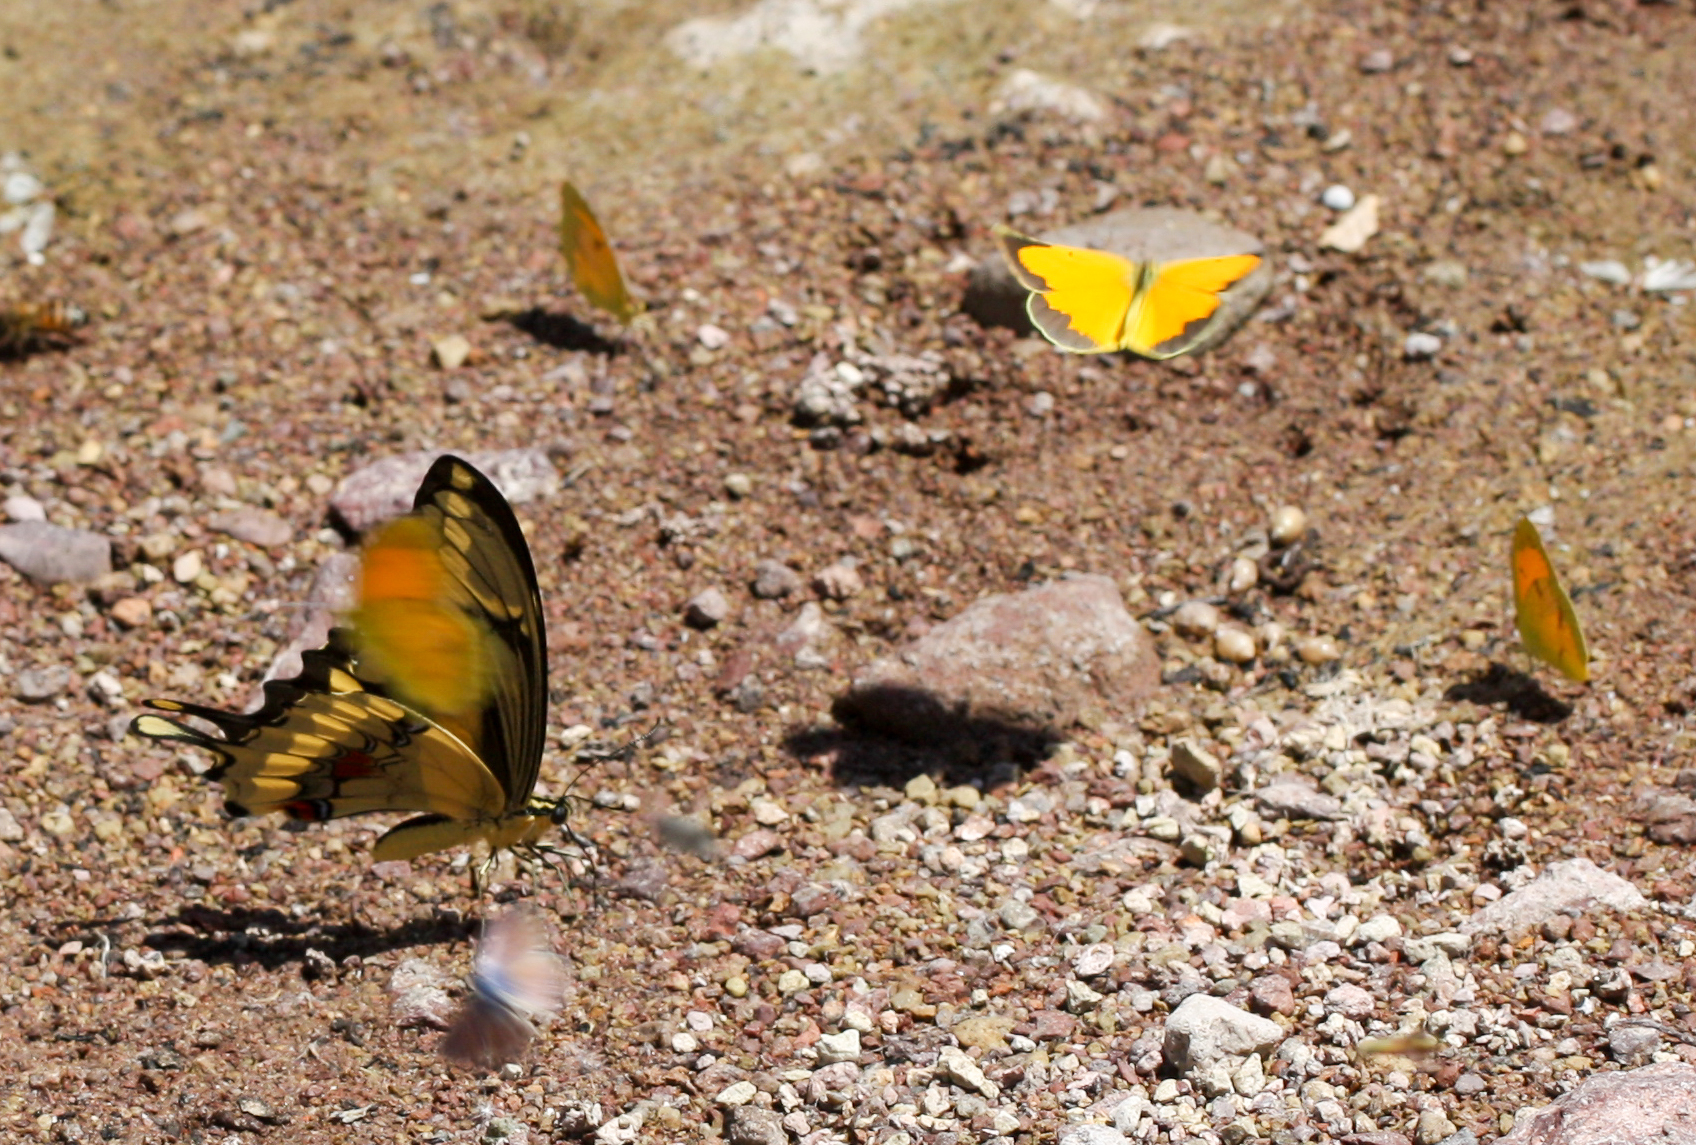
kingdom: Animalia
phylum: Arthropoda
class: Insecta
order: Lepidoptera
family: Papilionidae
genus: Papilio
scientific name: Papilio rumiko
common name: Western giant swallowtail
